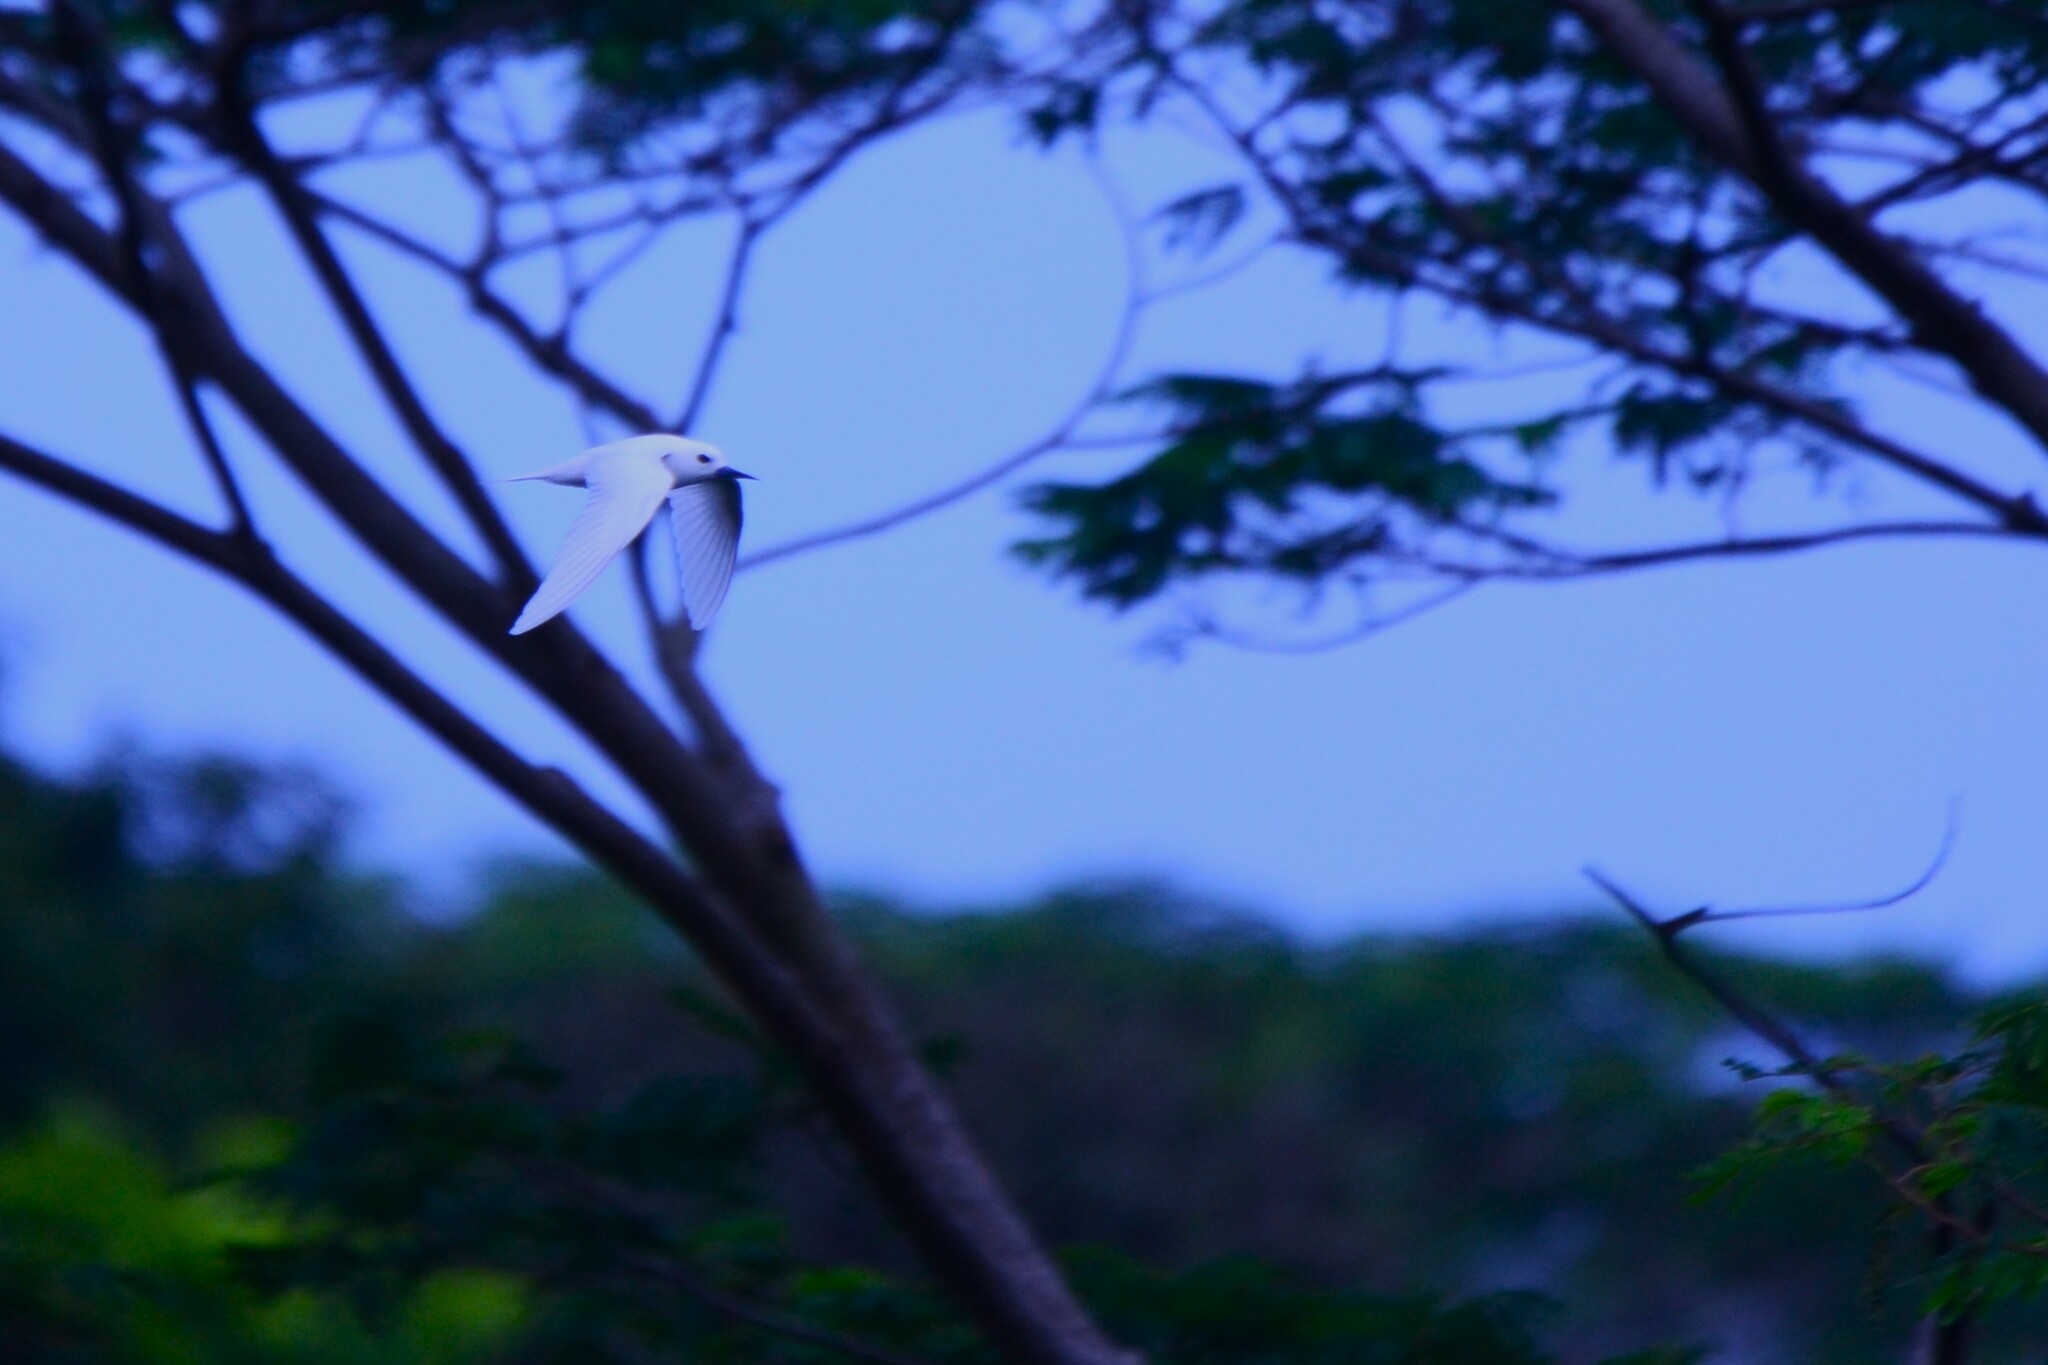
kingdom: Animalia
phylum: Chordata
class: Aves
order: Charadriiformes
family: Laridae
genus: Gygis
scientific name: Gygis alba
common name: White tern
